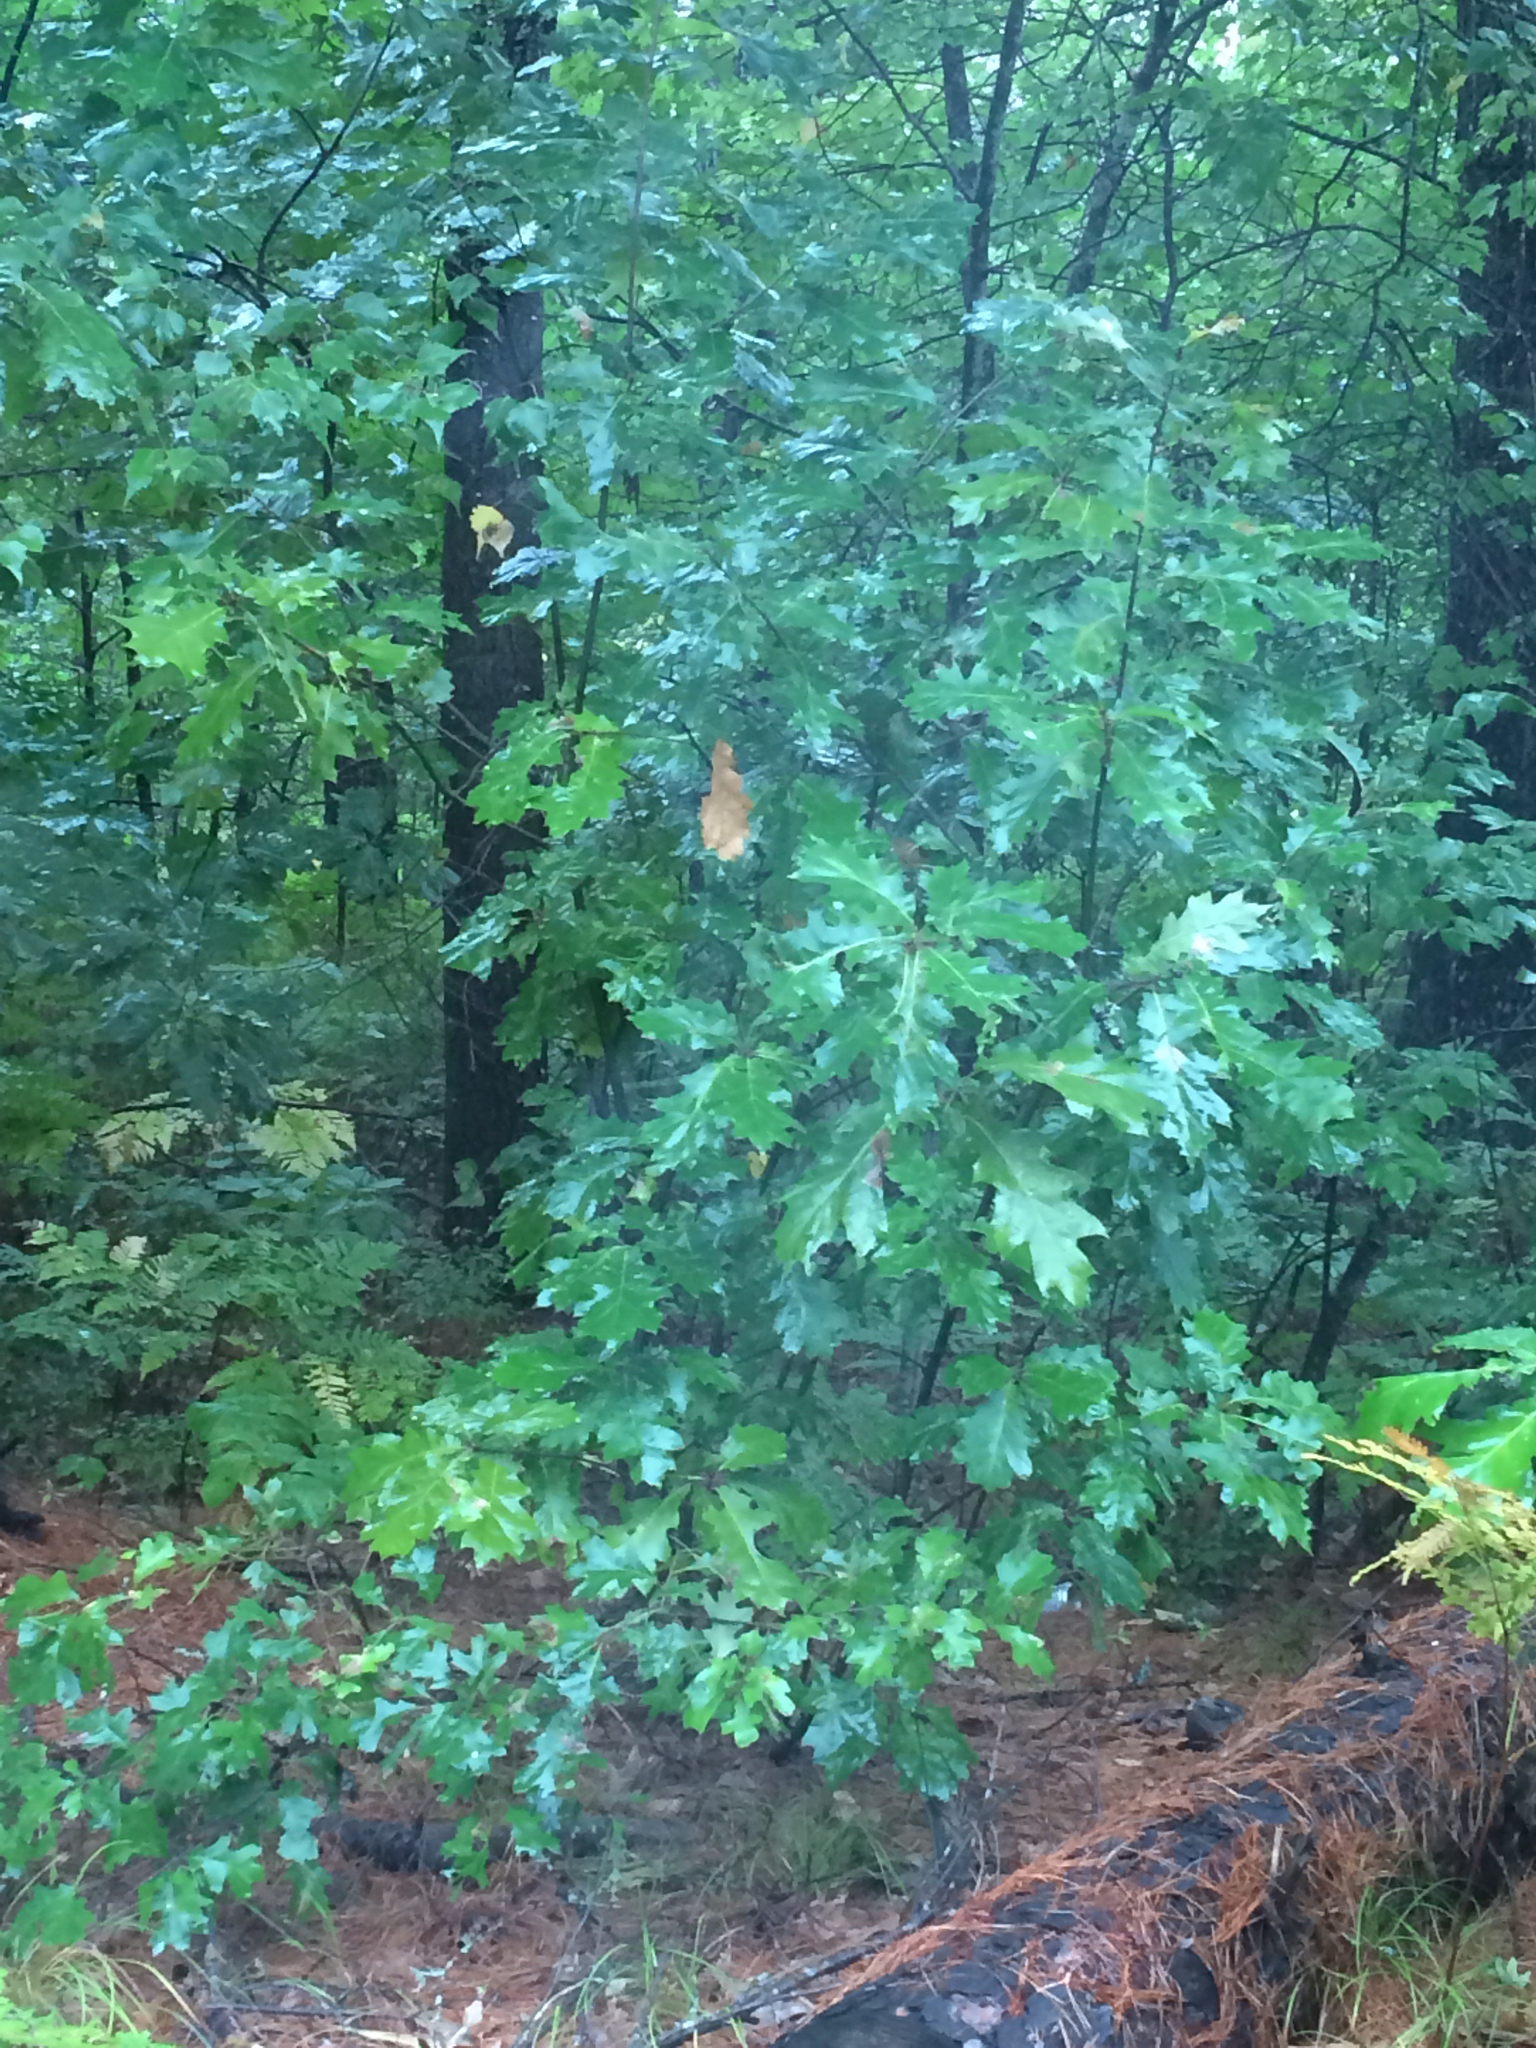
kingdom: Plantae
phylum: Tracheophyta
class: Magnoliopsida
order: Fagales
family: Fagaceae
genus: Quercus
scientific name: Quercus rubra
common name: Red oak
